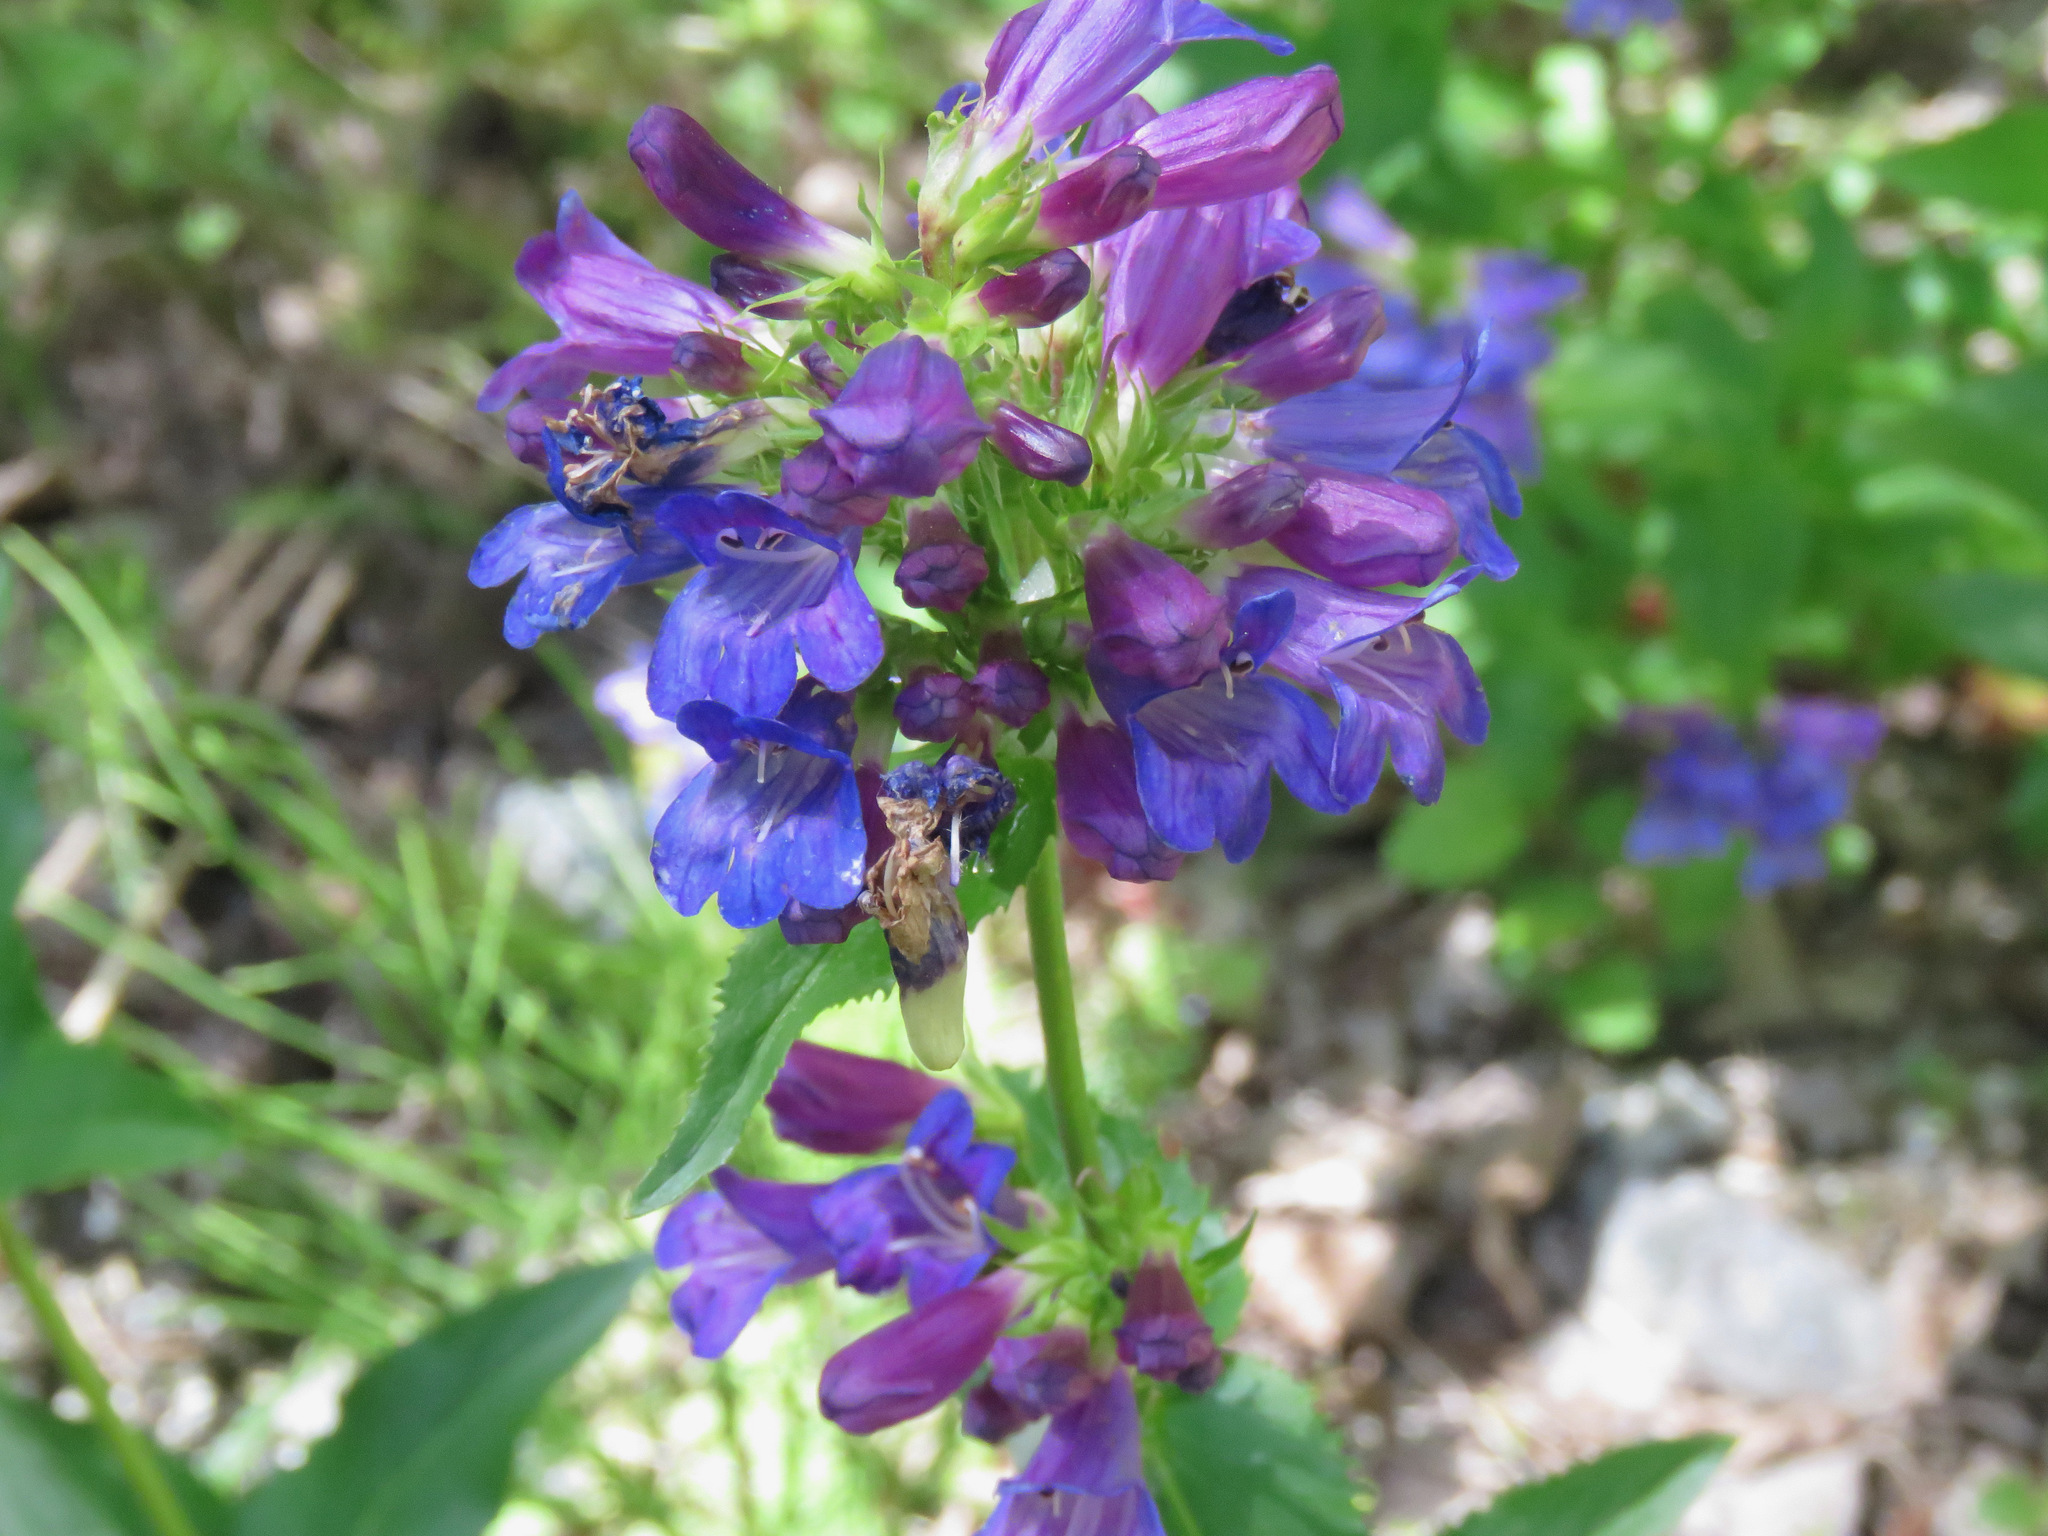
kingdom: Plantae
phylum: Tracheophyta
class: Magnoliopsida
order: Lamiales
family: Plantaginaceae
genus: Penstemon
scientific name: Penstemon serrulatus
